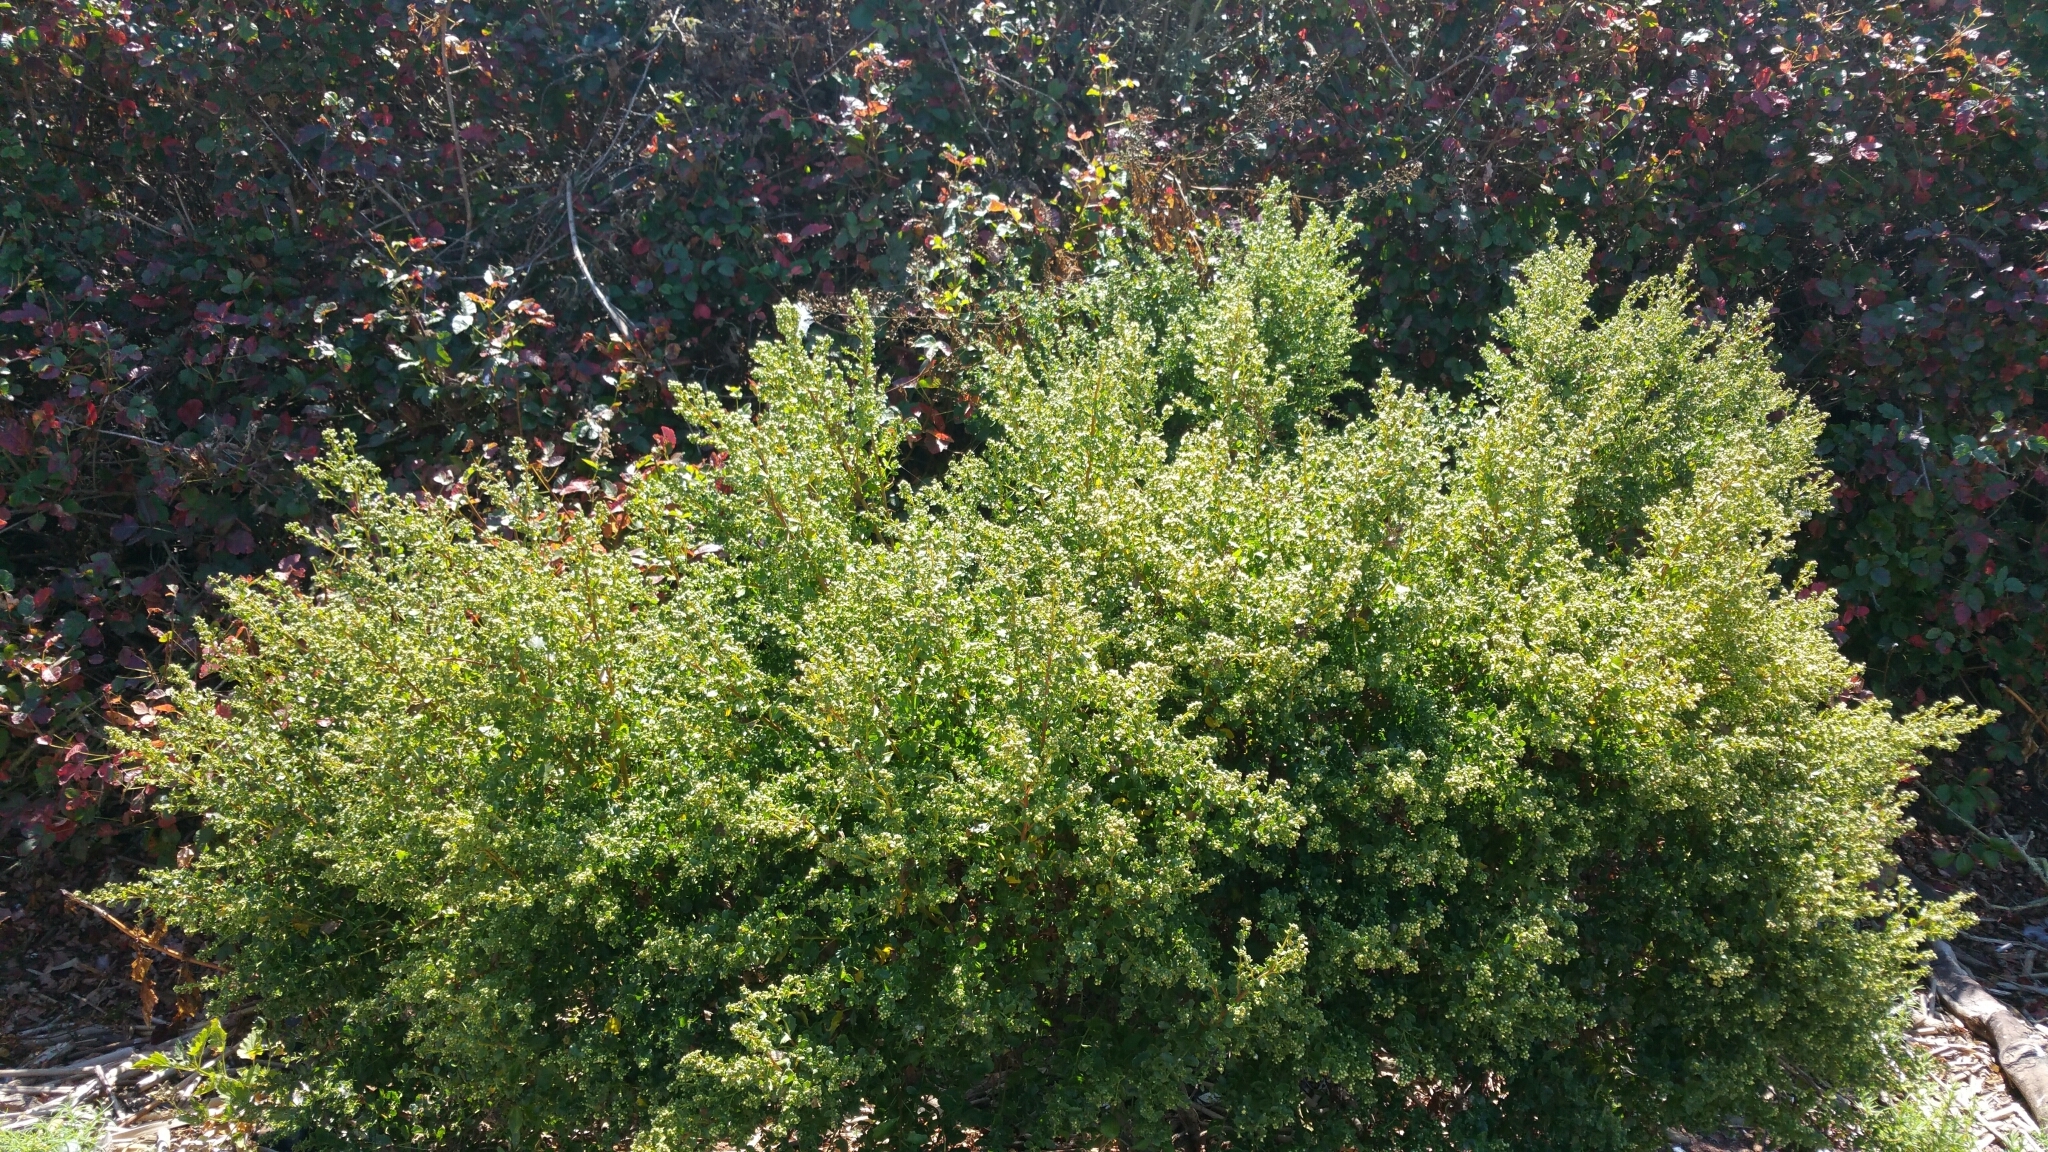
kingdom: Plantae
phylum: Tracheophyta
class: Magnoliopsida
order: Asterales
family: Asteraceae
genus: Baccharis
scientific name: Baccharis pilularis
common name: Coyotebrush
